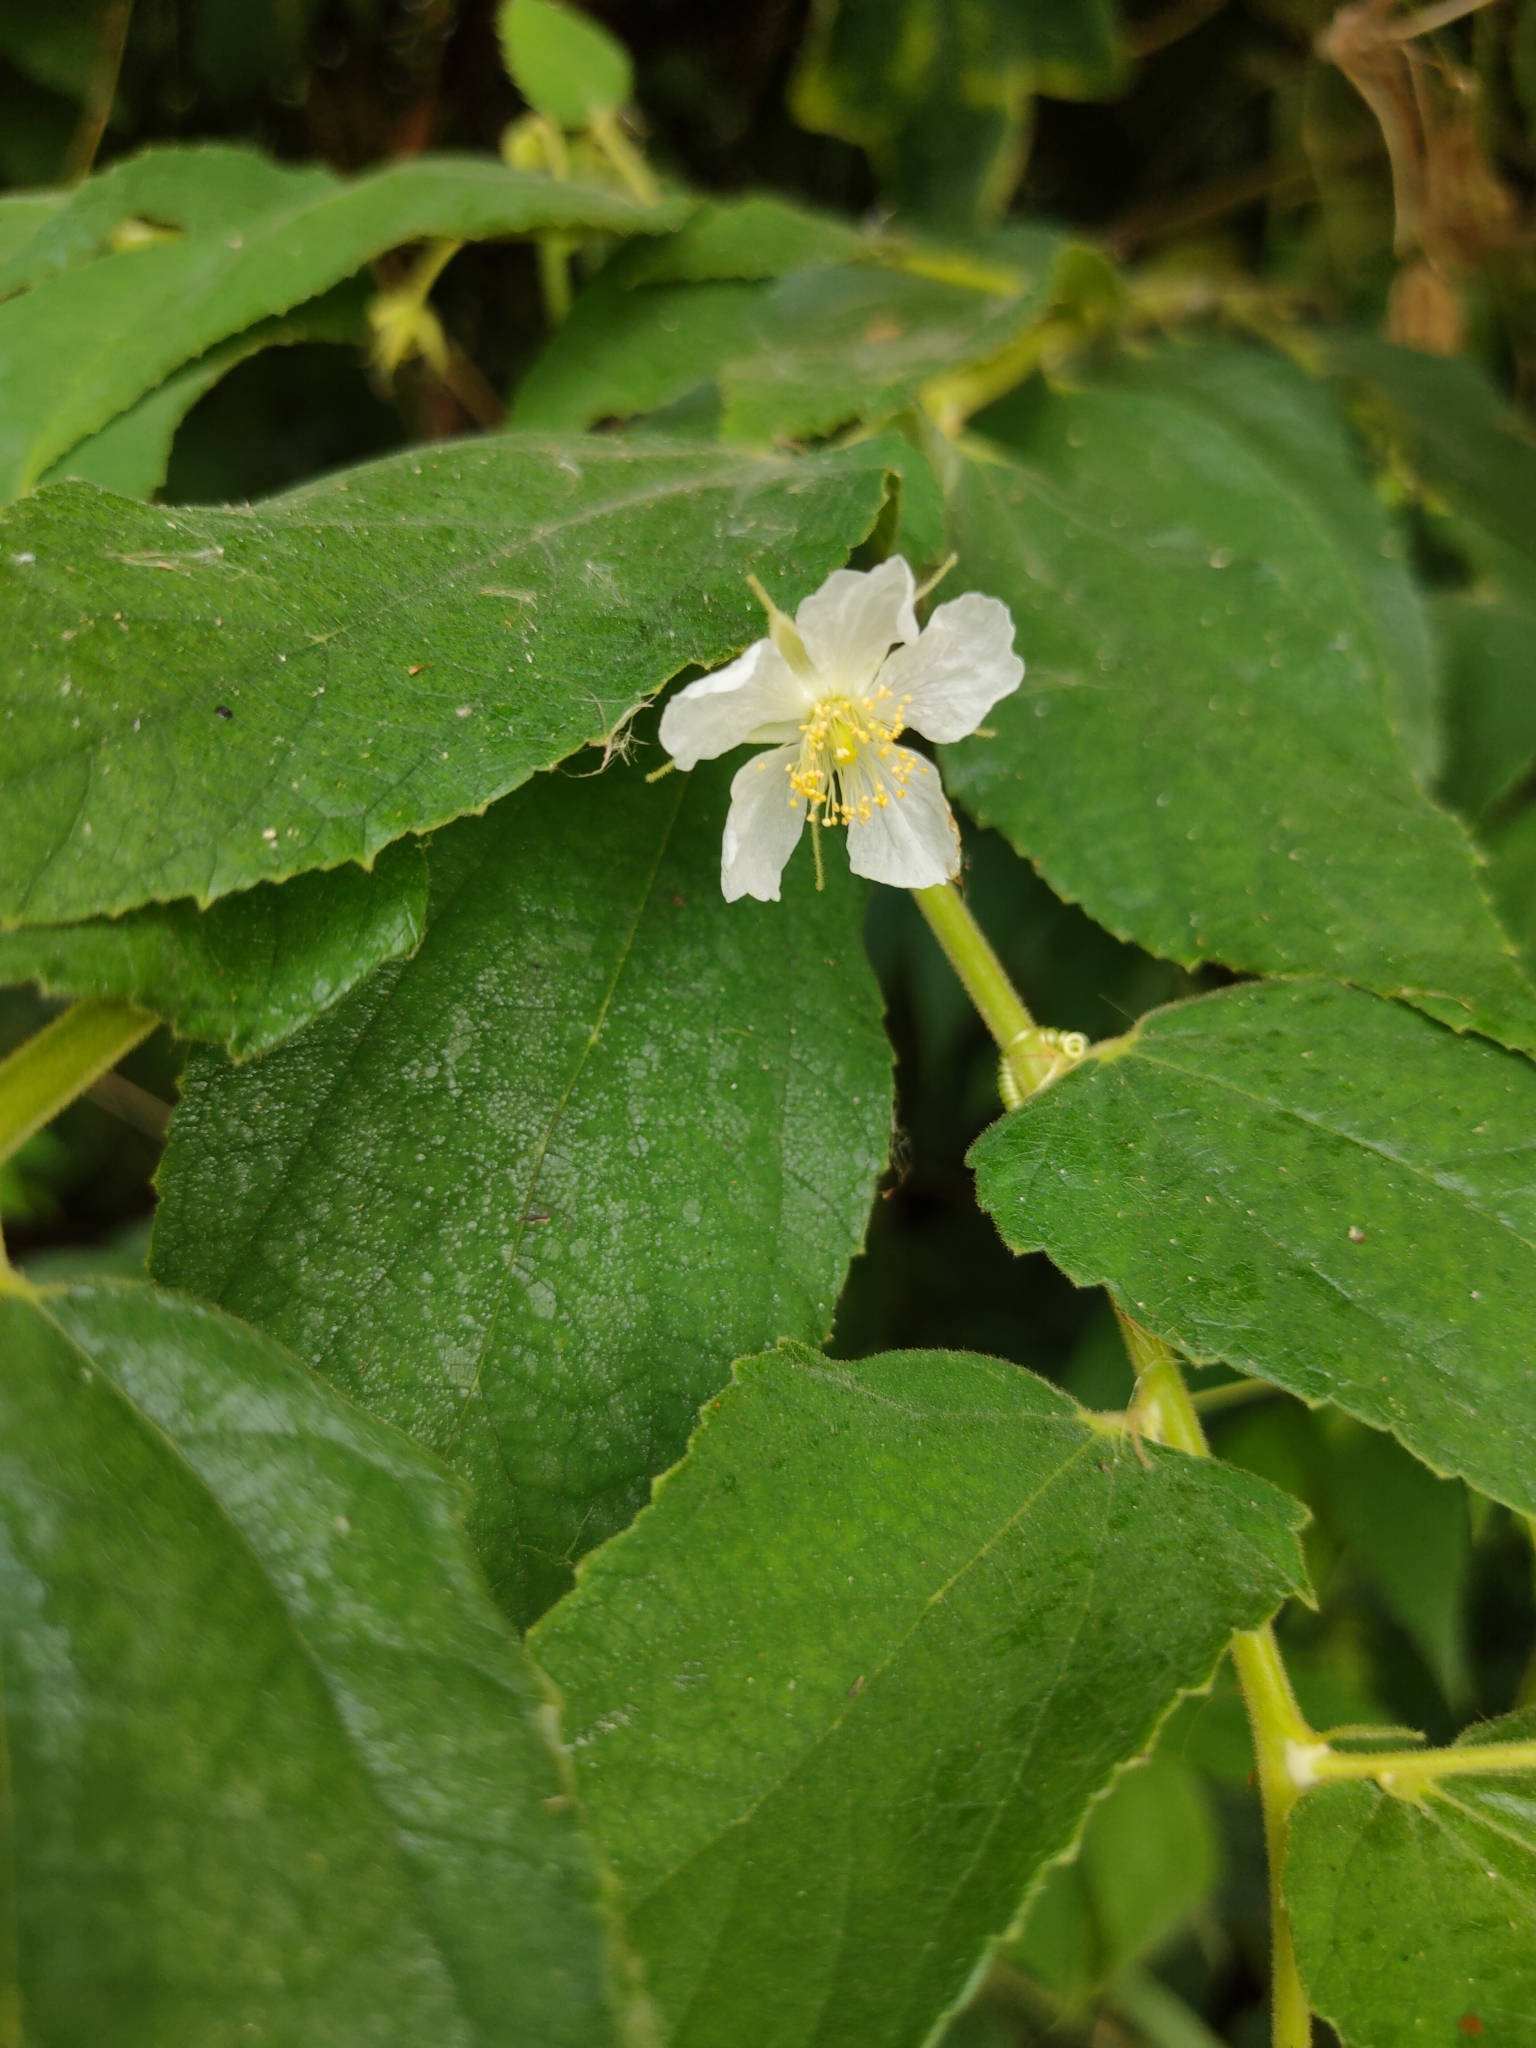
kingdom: Plantae
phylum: Tracheophyta
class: Magnoliopsida
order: Malvales
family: Muntingiaceae
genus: Muntingia
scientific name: Muntingia calabura
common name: Strawberrytree
